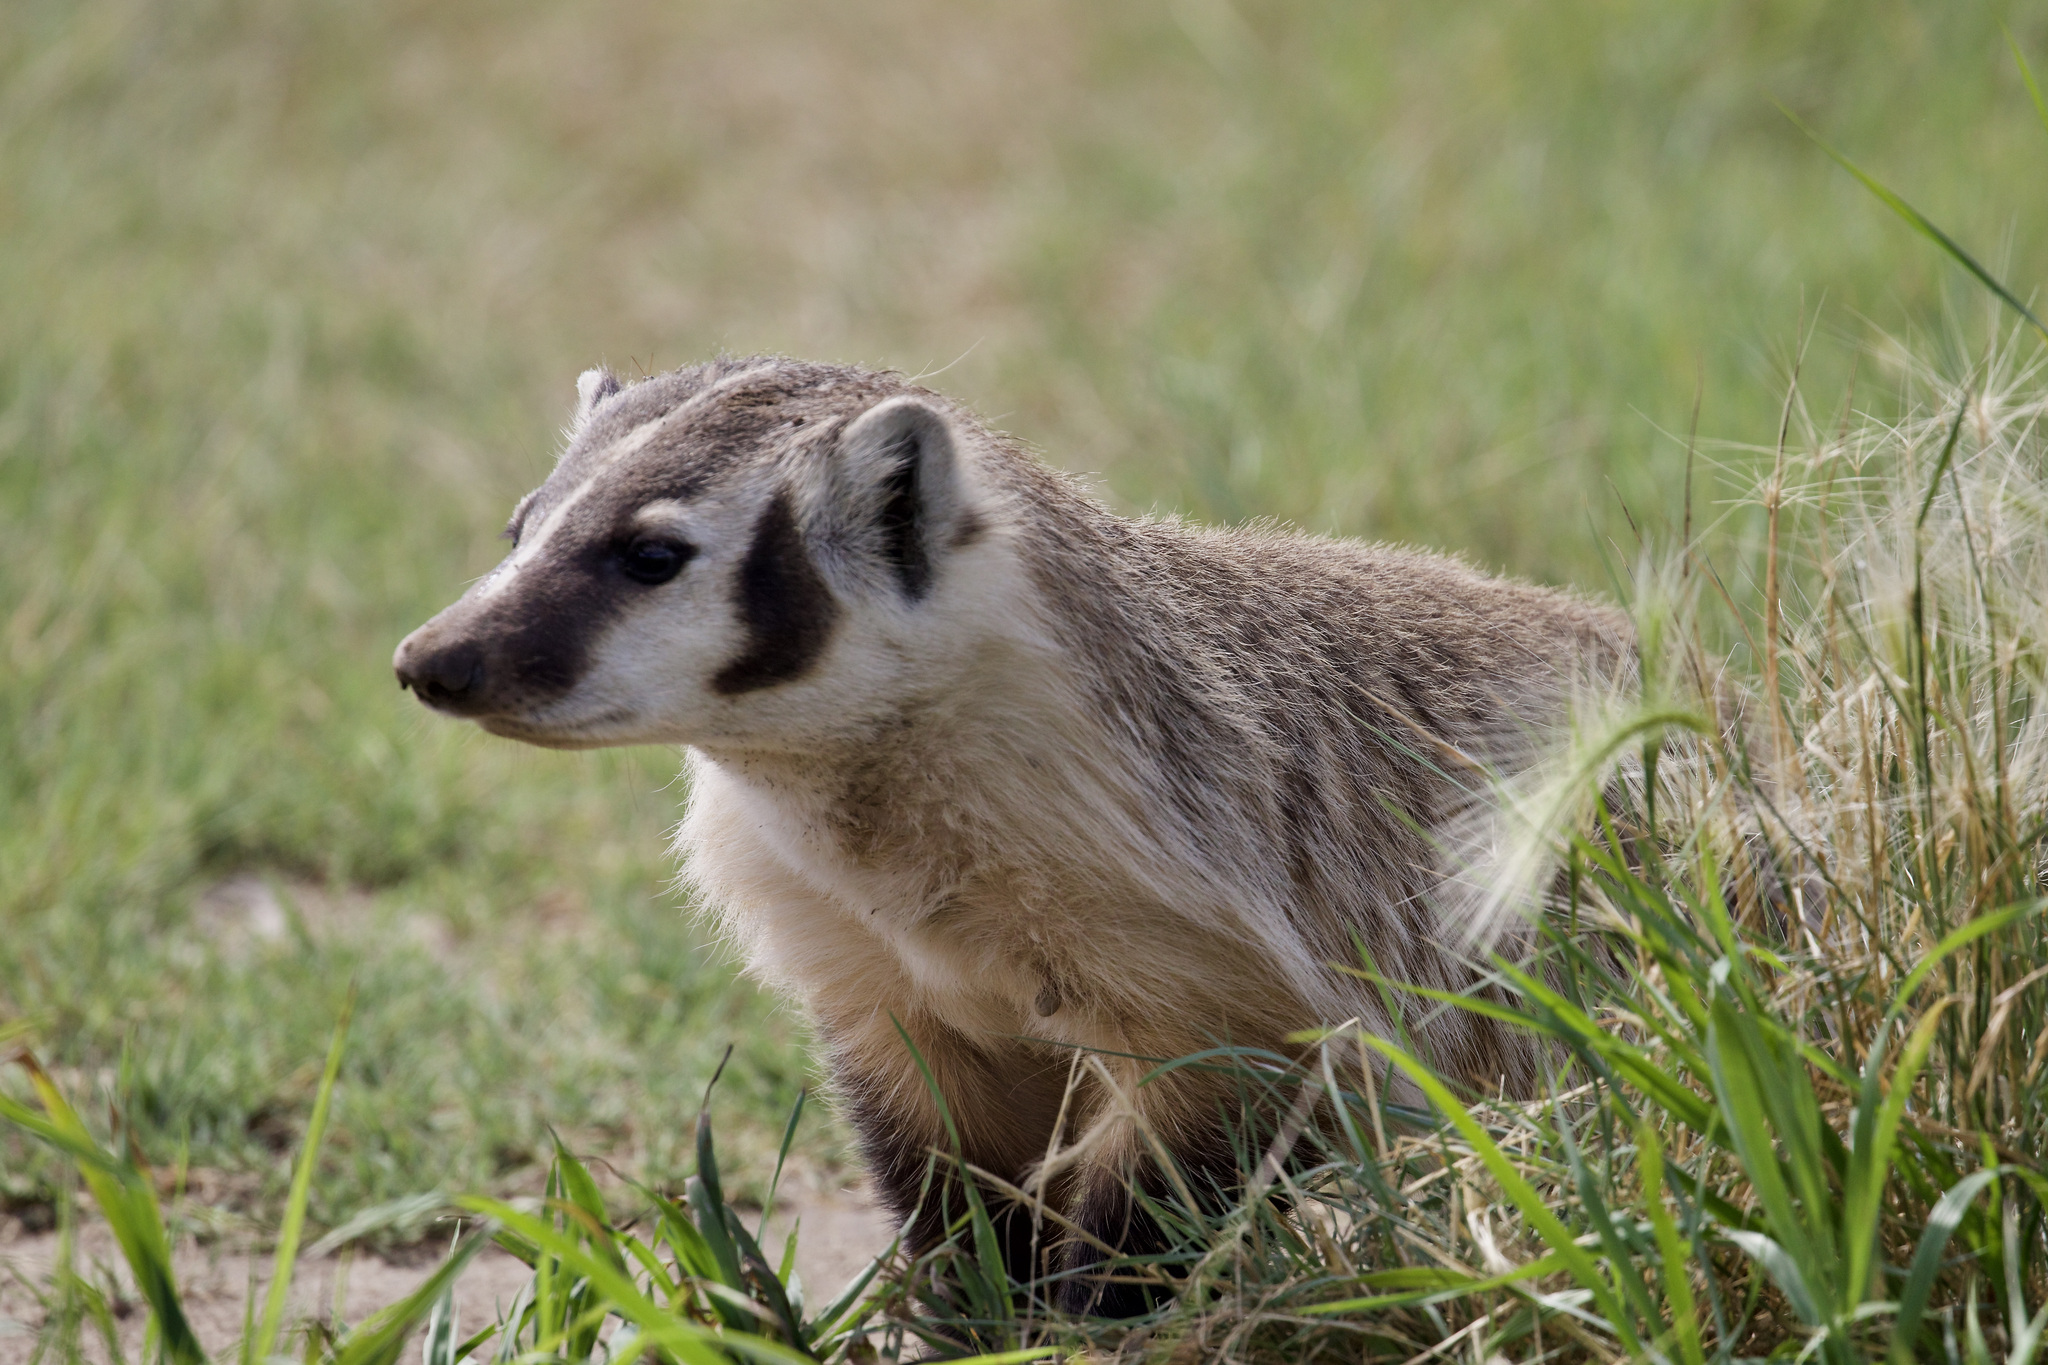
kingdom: Animalia
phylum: Chordata
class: Mammalia
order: Carnivora
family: Mustelidae
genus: Taxidea
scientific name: Taxidea taxus
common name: American badger
